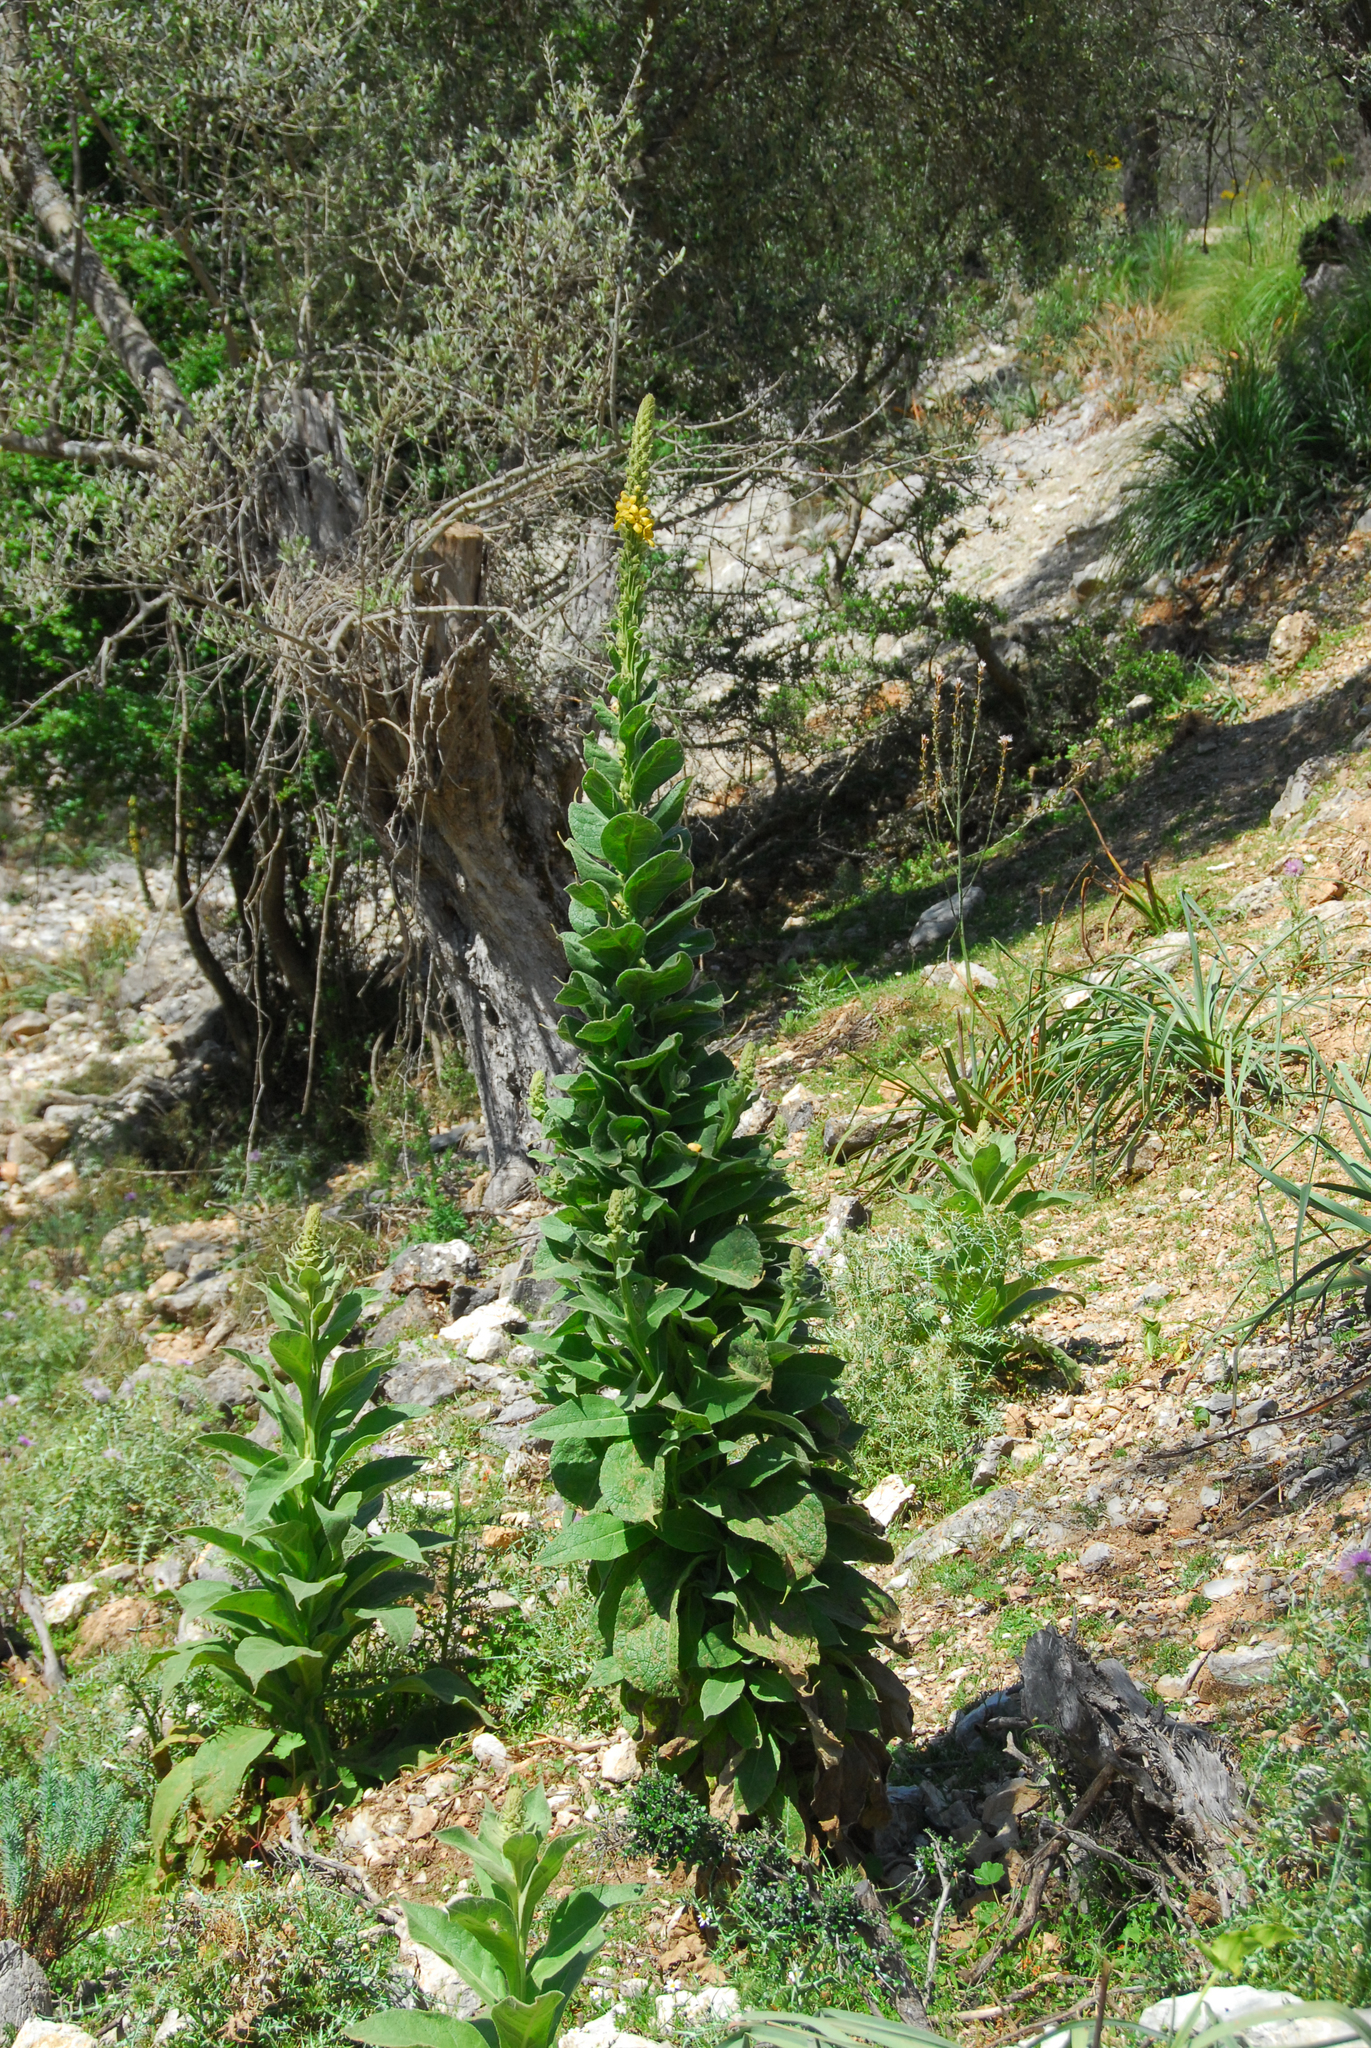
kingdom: Plantae
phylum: Tracheophyta
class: Magnoliopsida
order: Lamiales
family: Scrophulariaceae
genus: Verbascum
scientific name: Verbascum thapsus
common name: Common mullein
